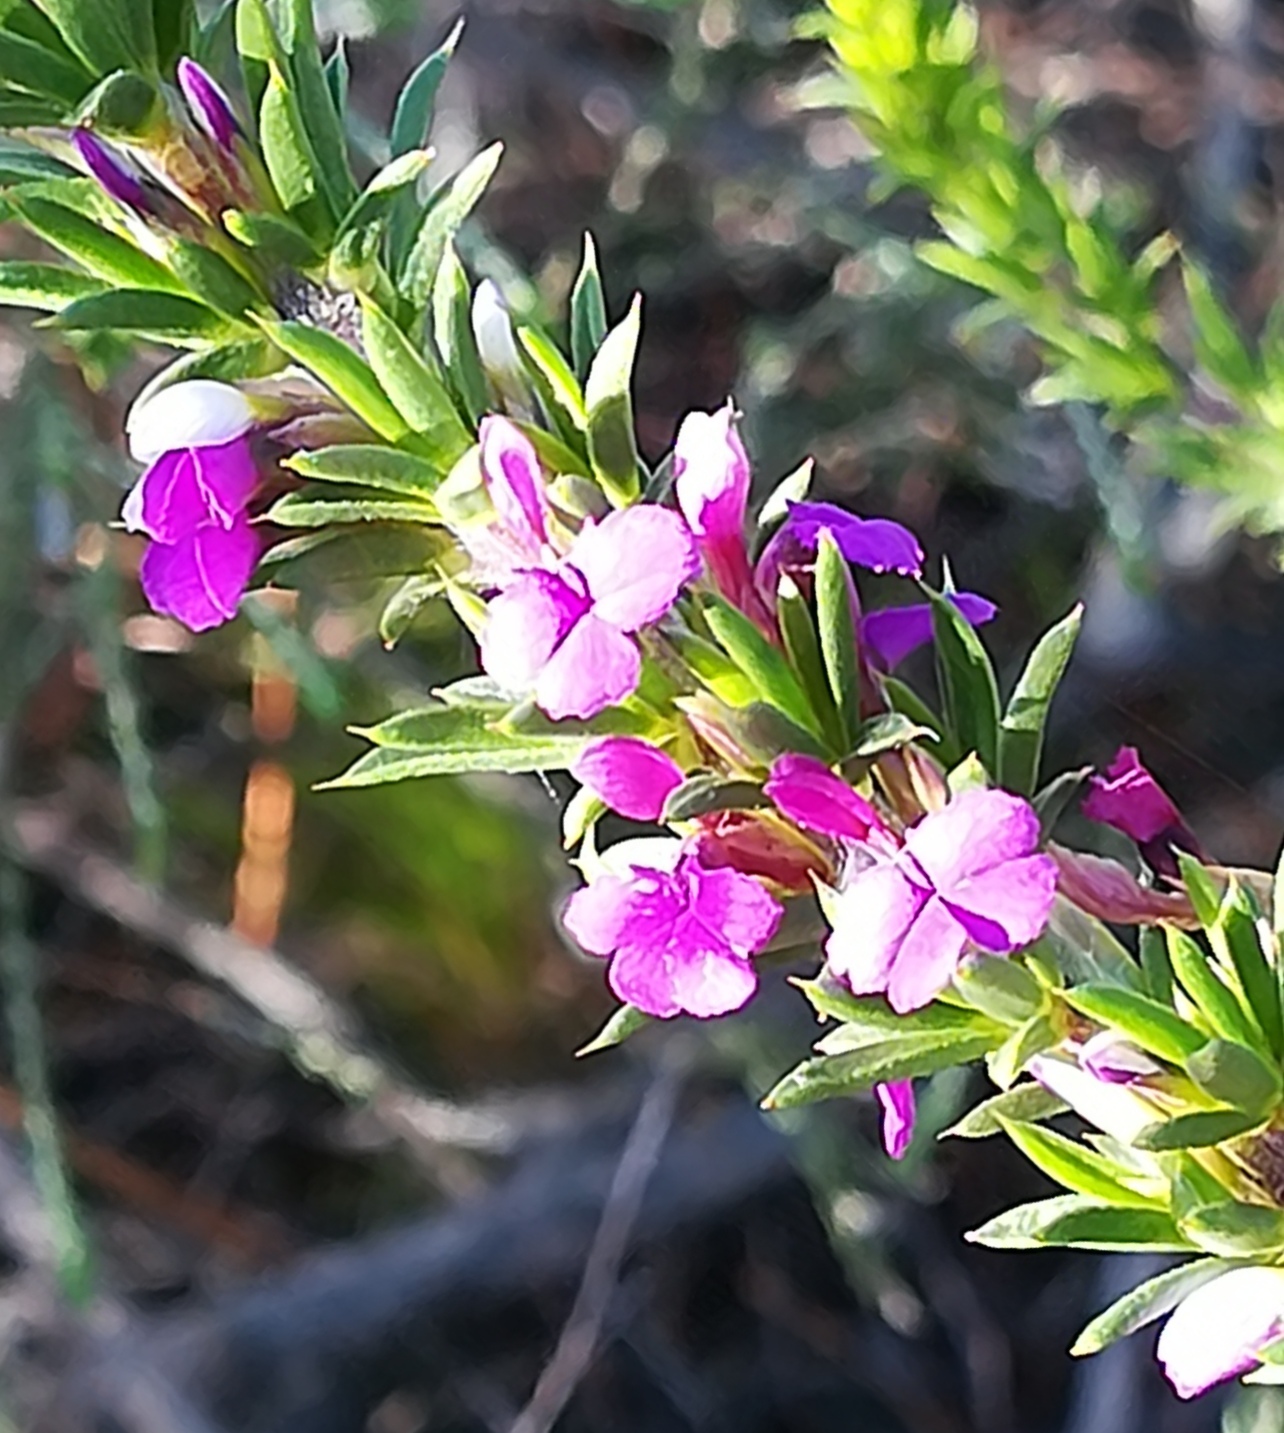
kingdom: Plantae
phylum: Tracheophyta
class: Magnoliopsida
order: Fabales
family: Polygalaceae
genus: Muraltia
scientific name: Muraltia heisteria
